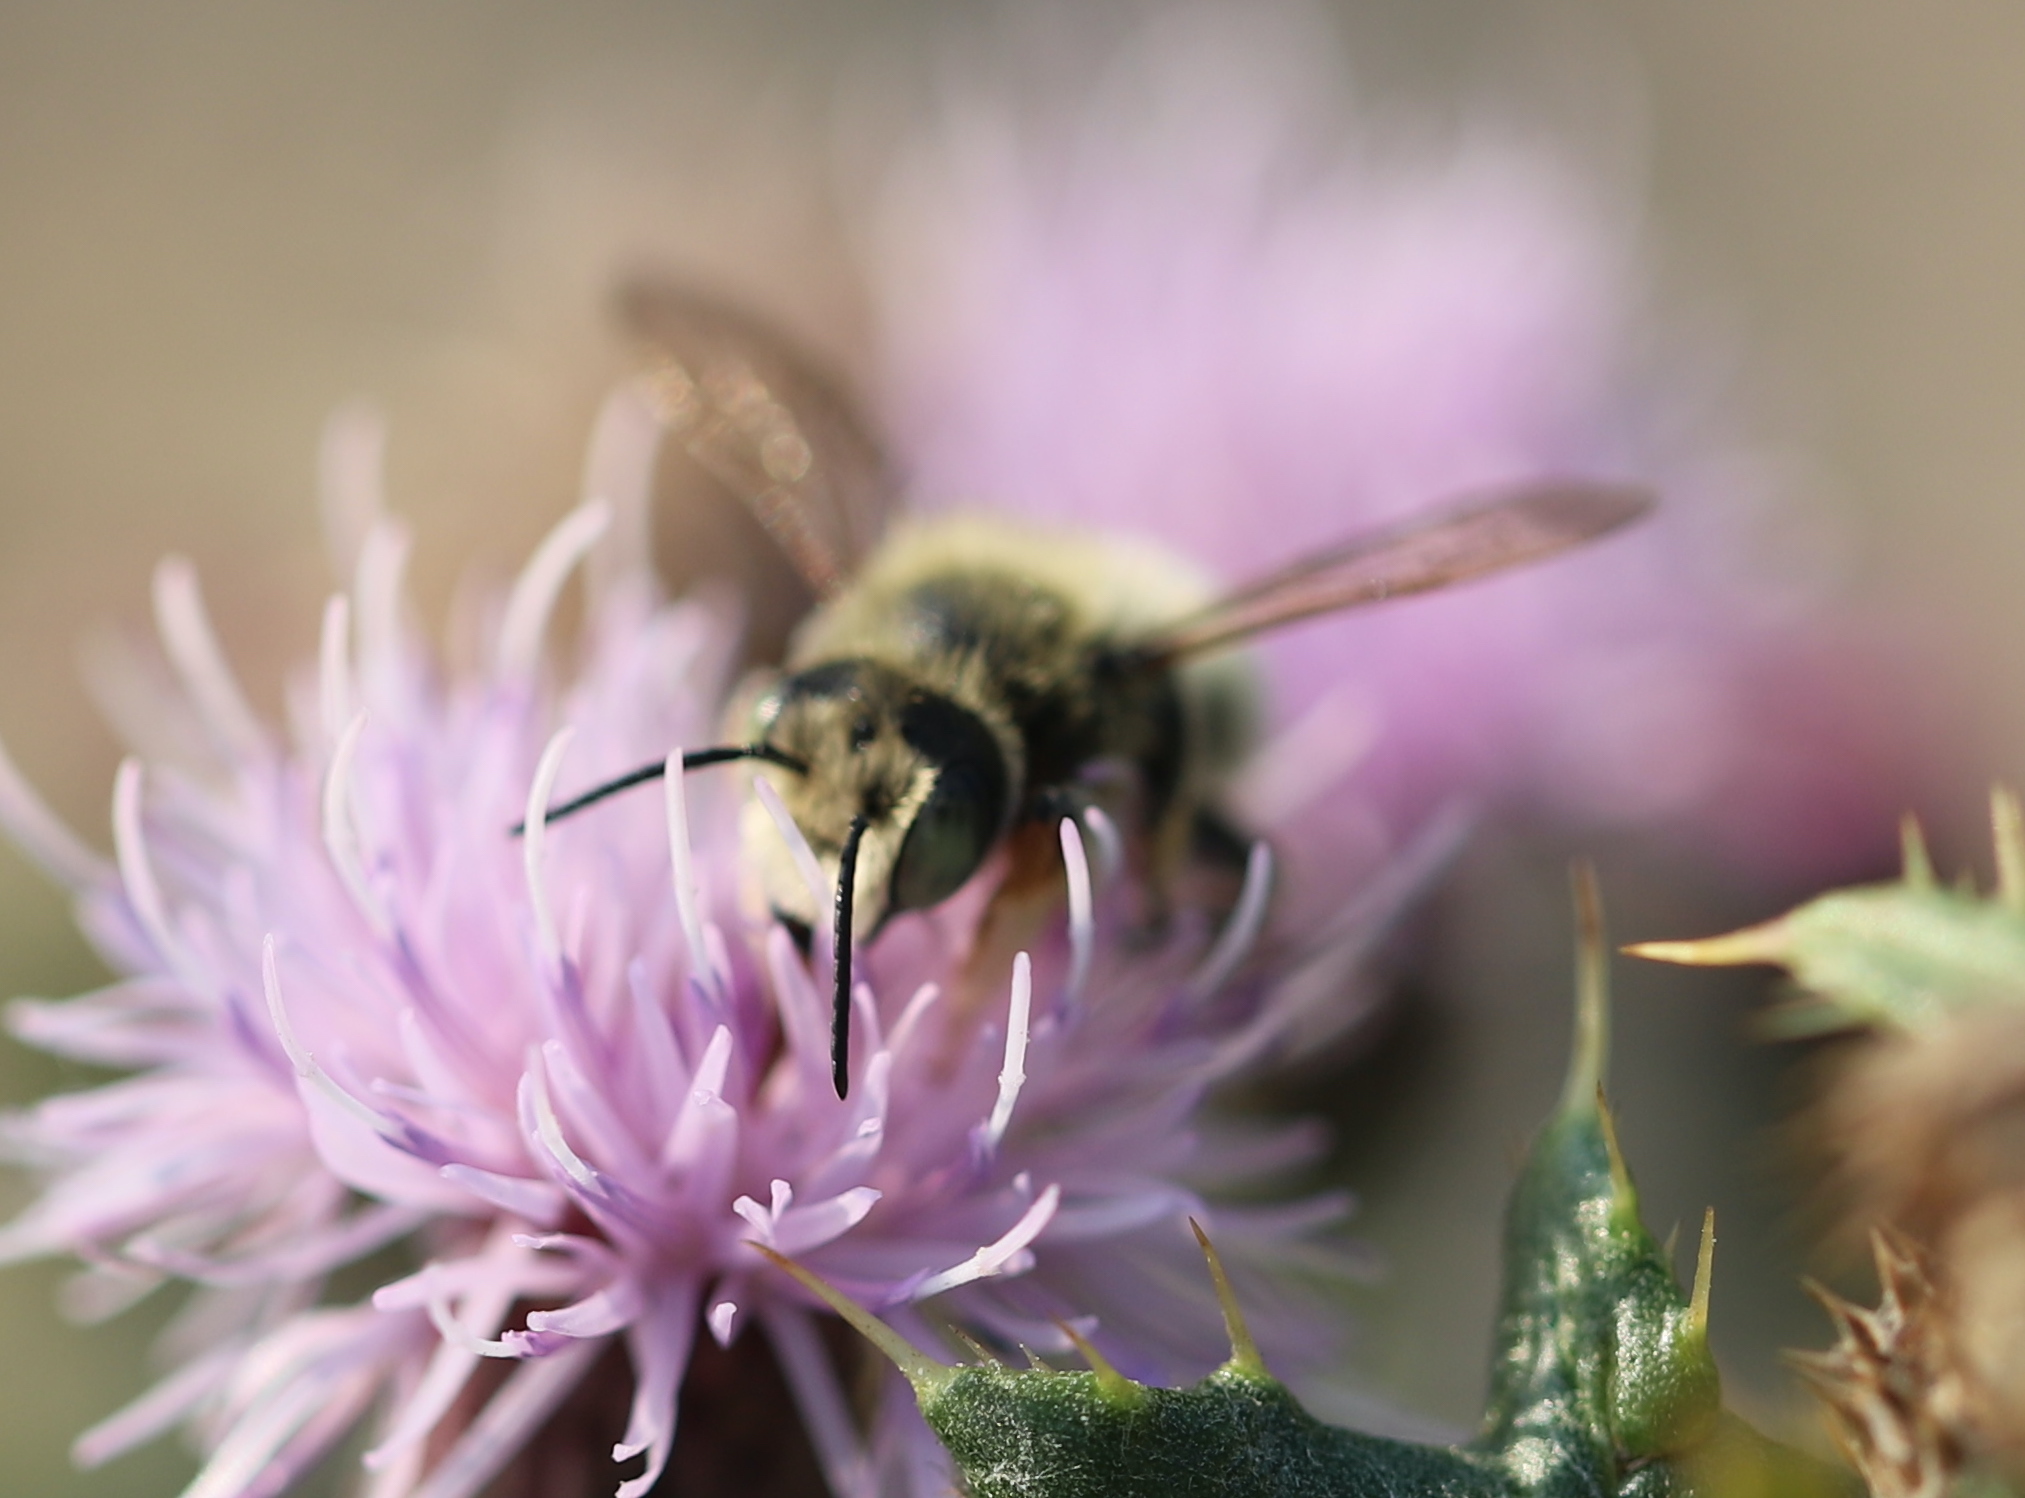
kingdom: Animalia
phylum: Arthropoda
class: Insecta
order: Hymenoptera
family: Megachilidae
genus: Megachile
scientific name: Megachile perihirta
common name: Western leafcutter
